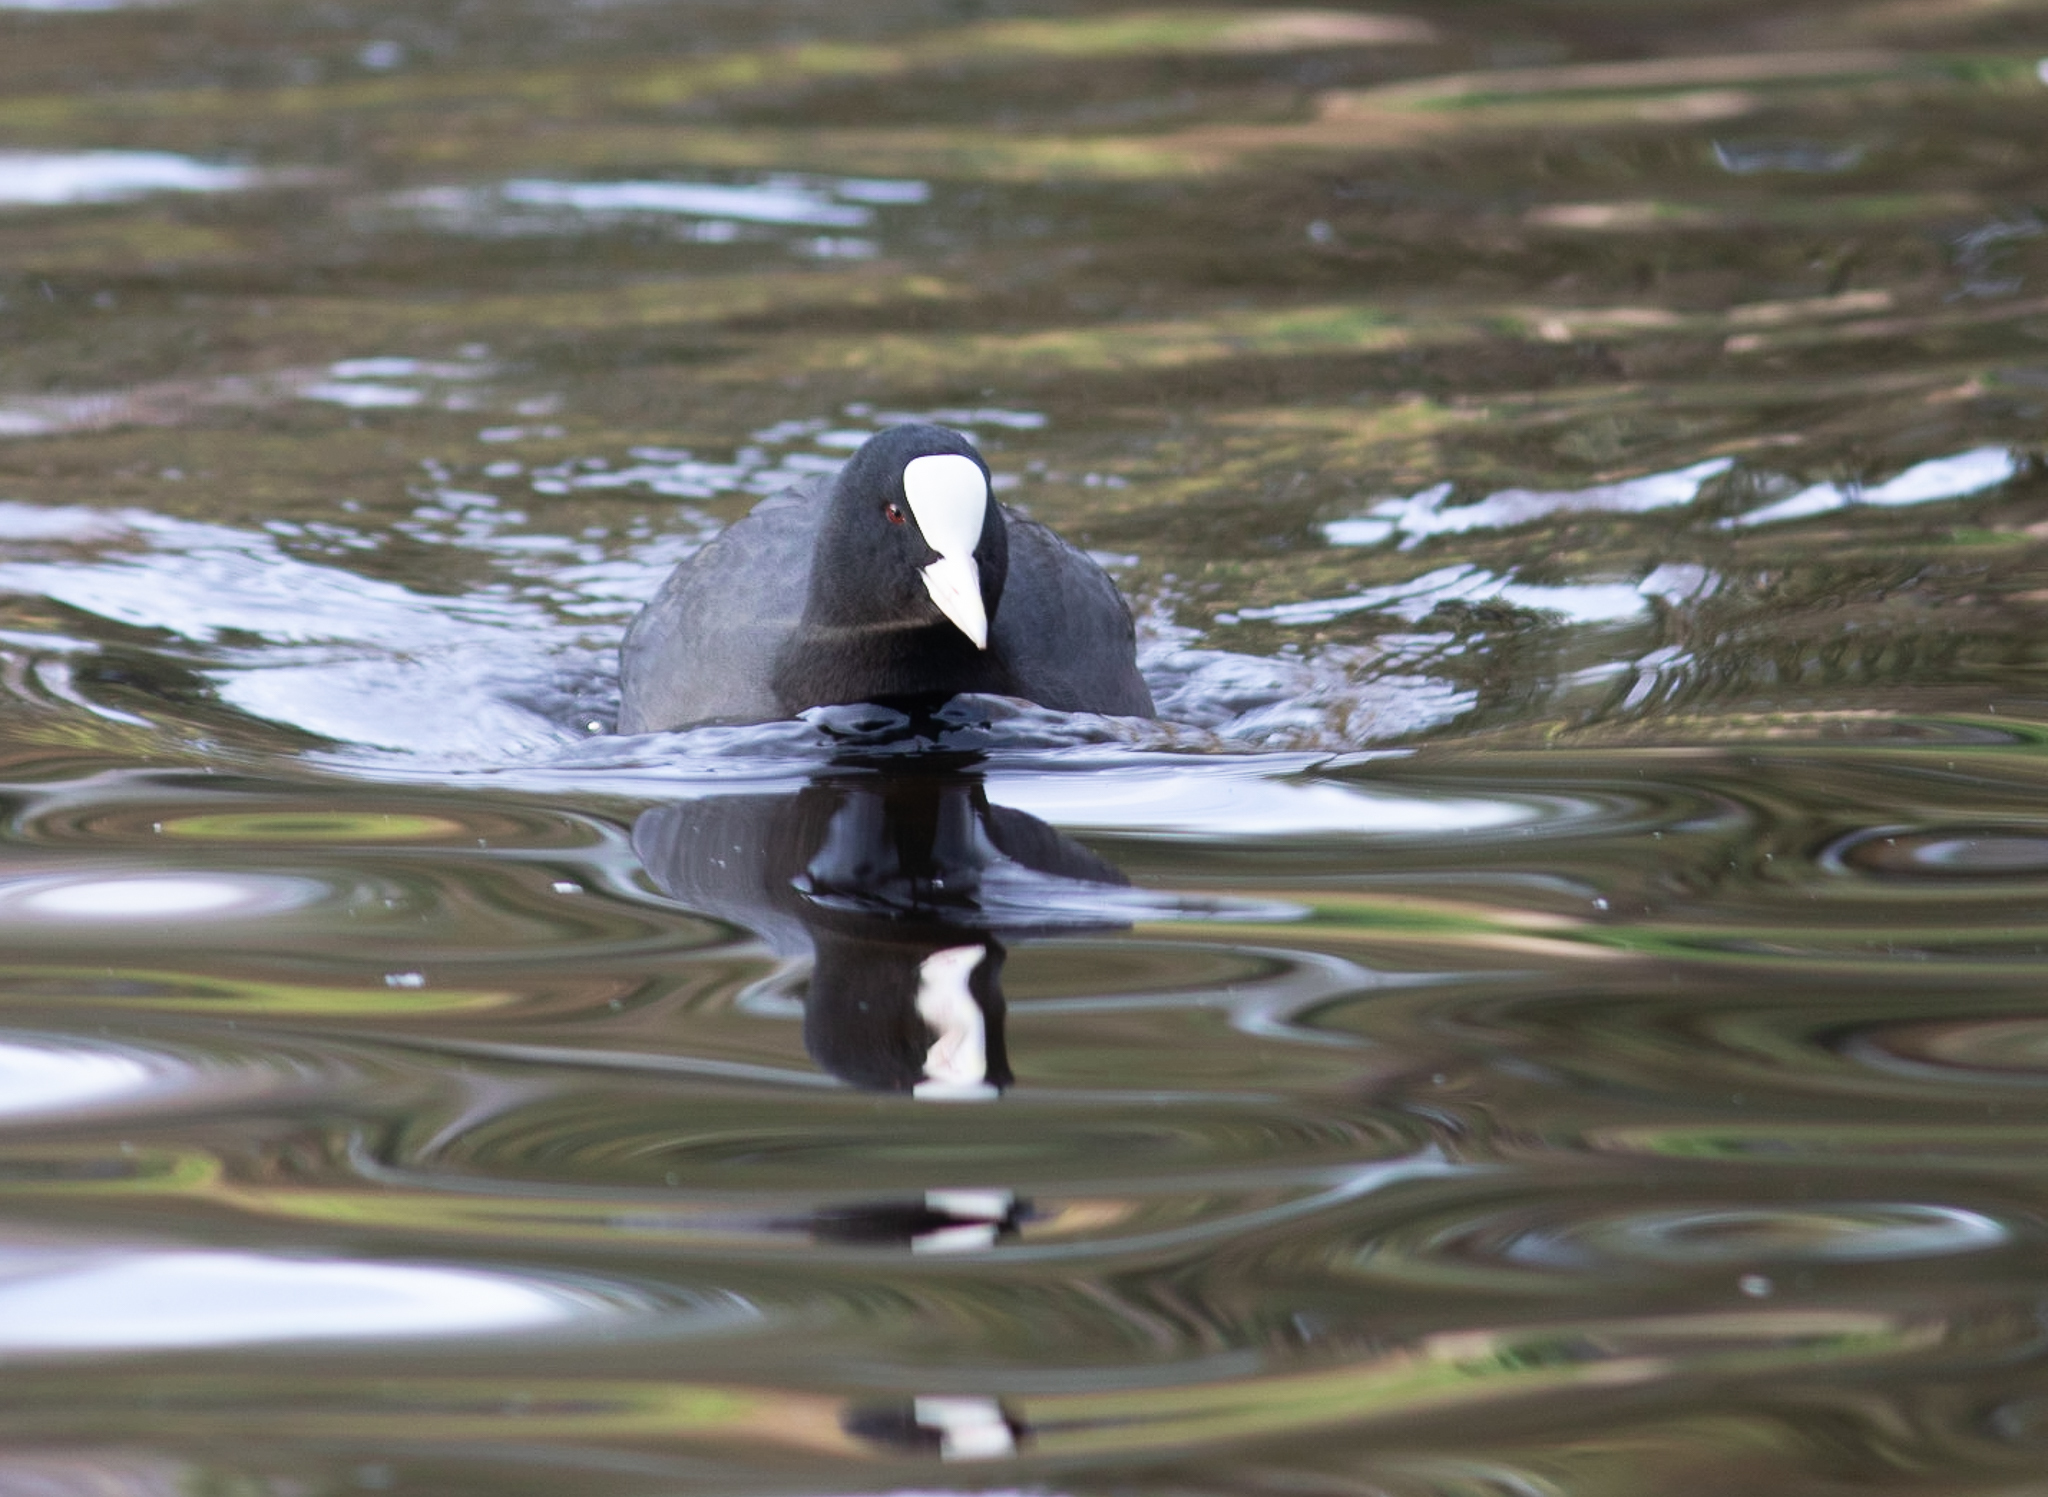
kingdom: Animalia
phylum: Chordata
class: Aves
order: Gruiformes
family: Rallidae
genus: Fulica
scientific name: Fulica atra
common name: Eurasian coot
